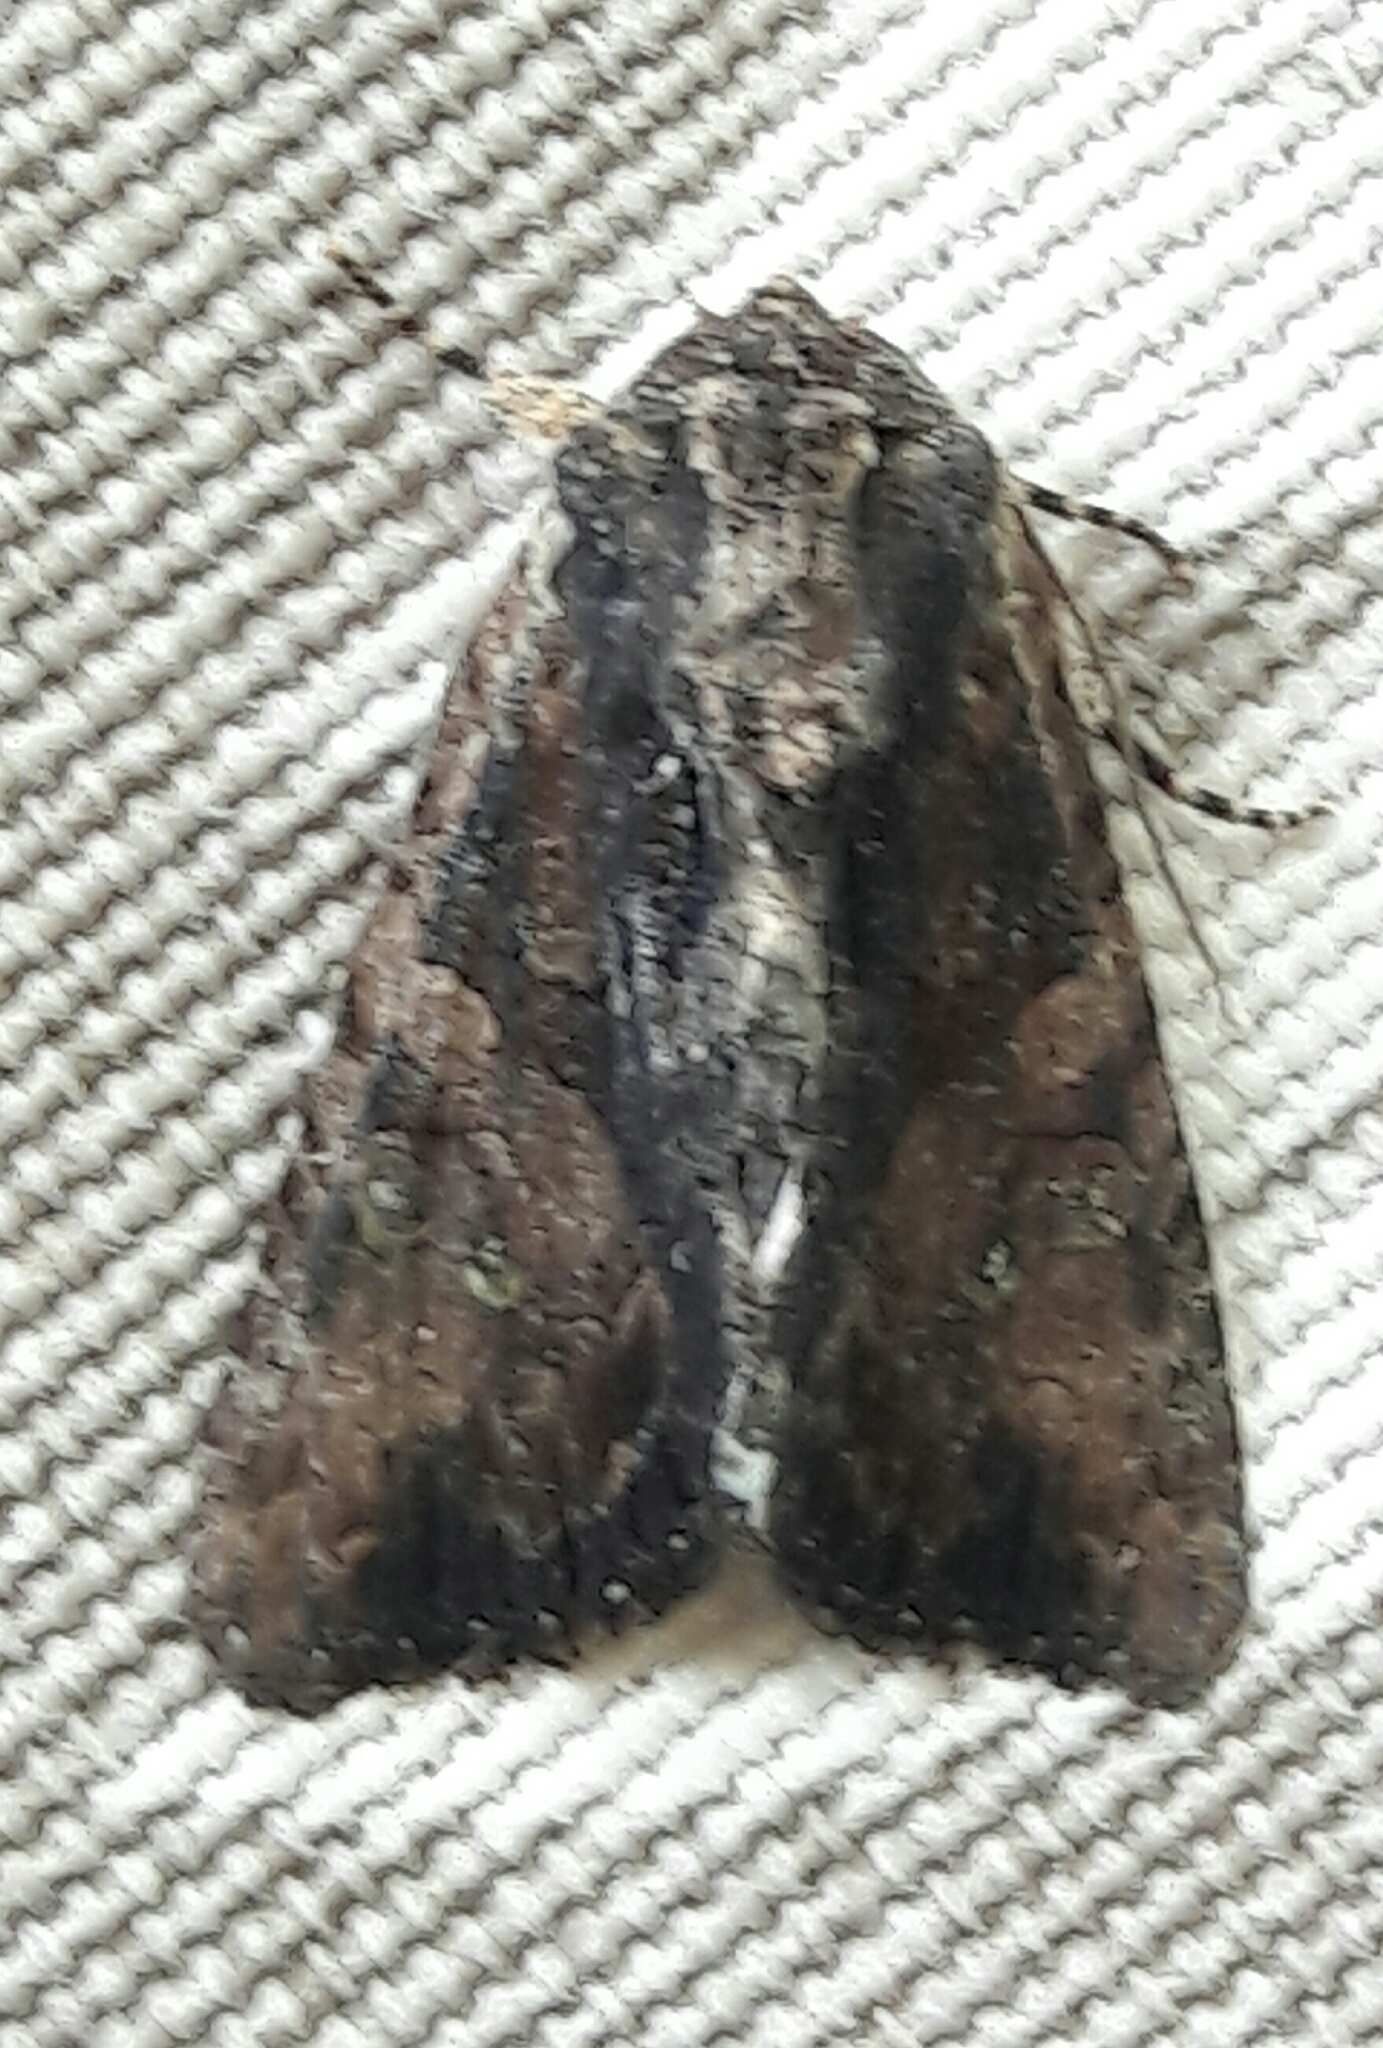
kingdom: Animalia
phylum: Arthropoda
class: Insecta
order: Lepidoptera
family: Noctuidae
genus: Acroria
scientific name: Acroria terens
